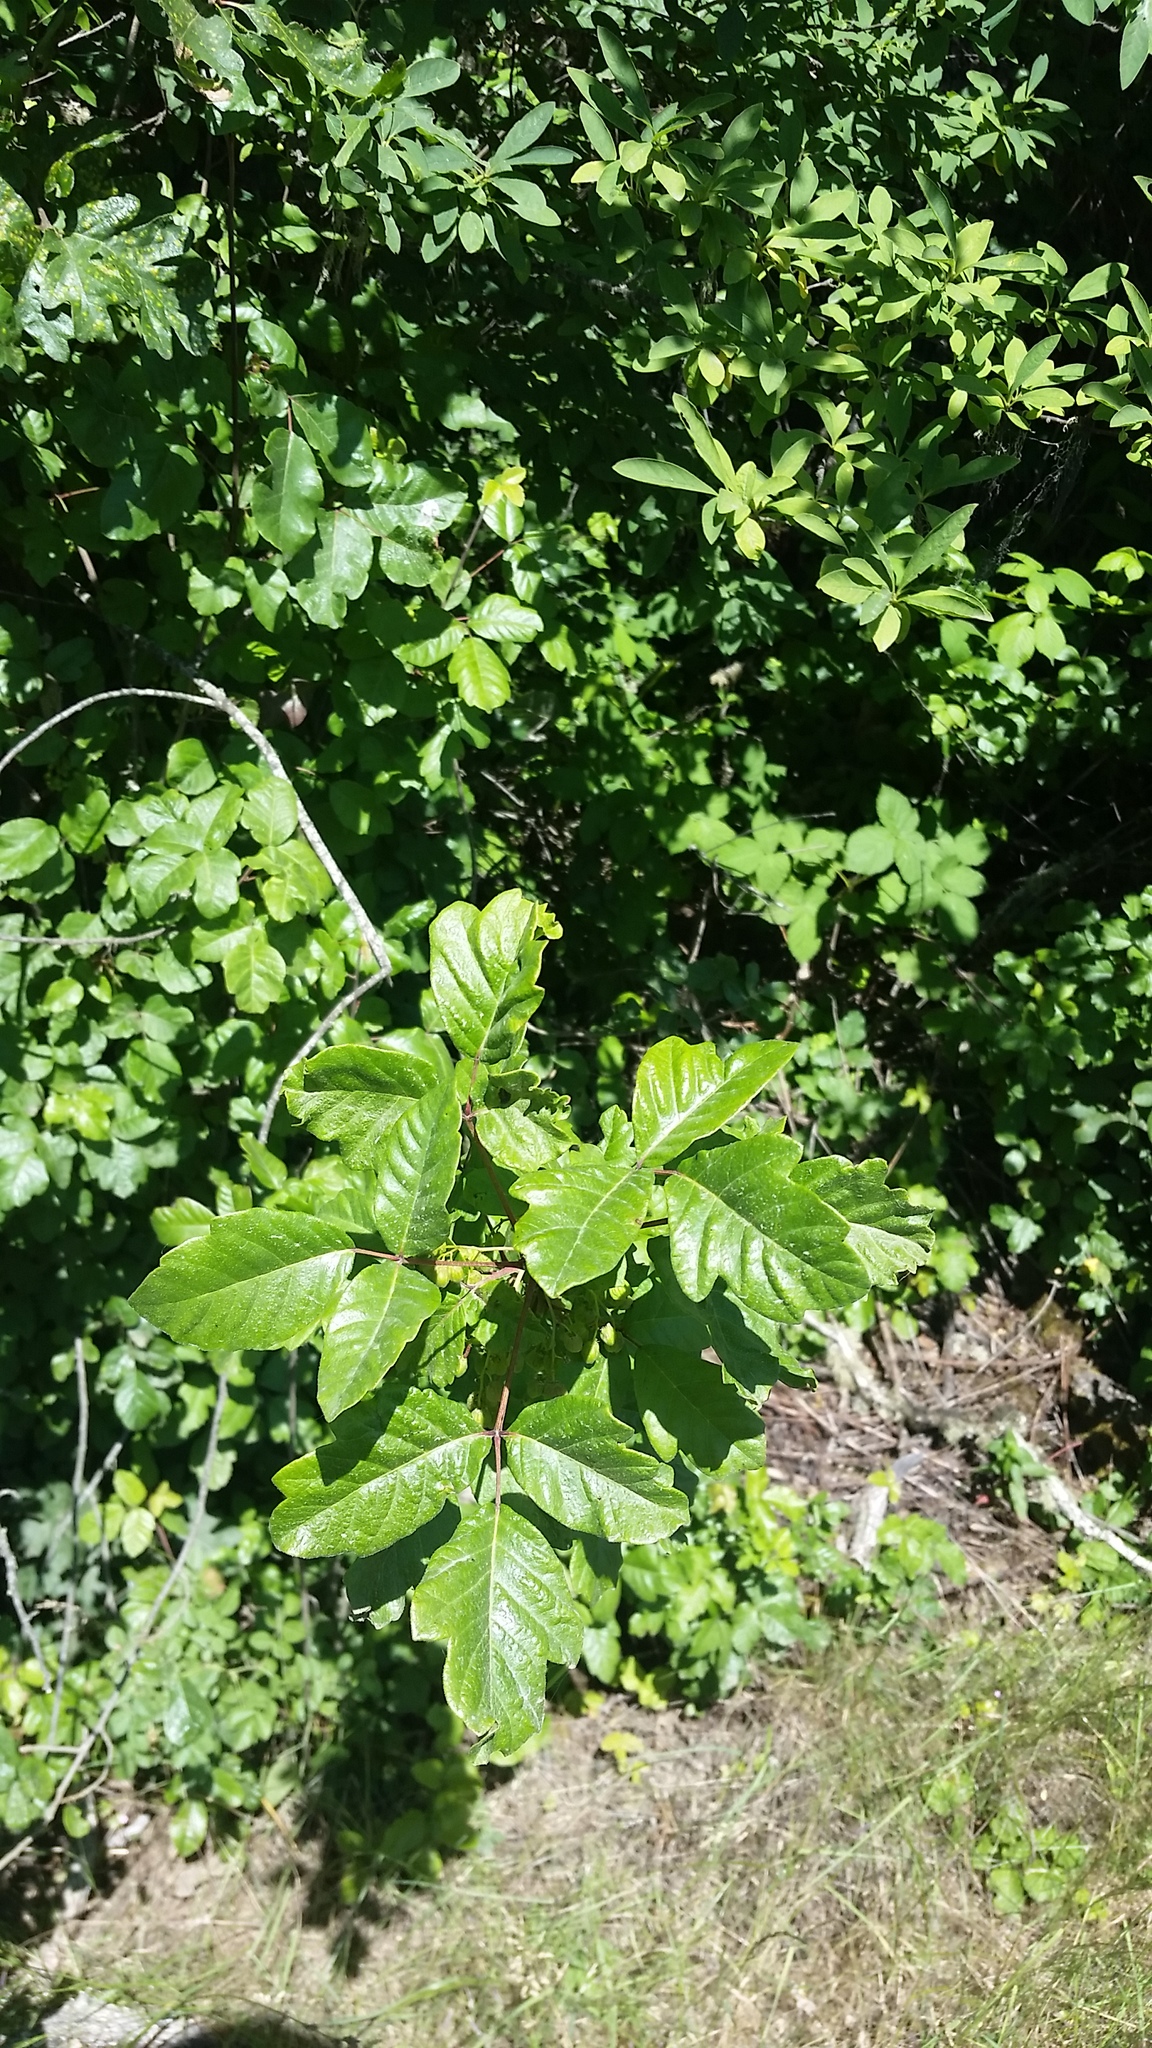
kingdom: Plantae
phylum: Tracheophyta
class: Magnoliopsida
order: Sapindales
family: Anacardiaceae
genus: Toxicodendron
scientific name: Toxicodendron diversilobum
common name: Pacific poison-oak
